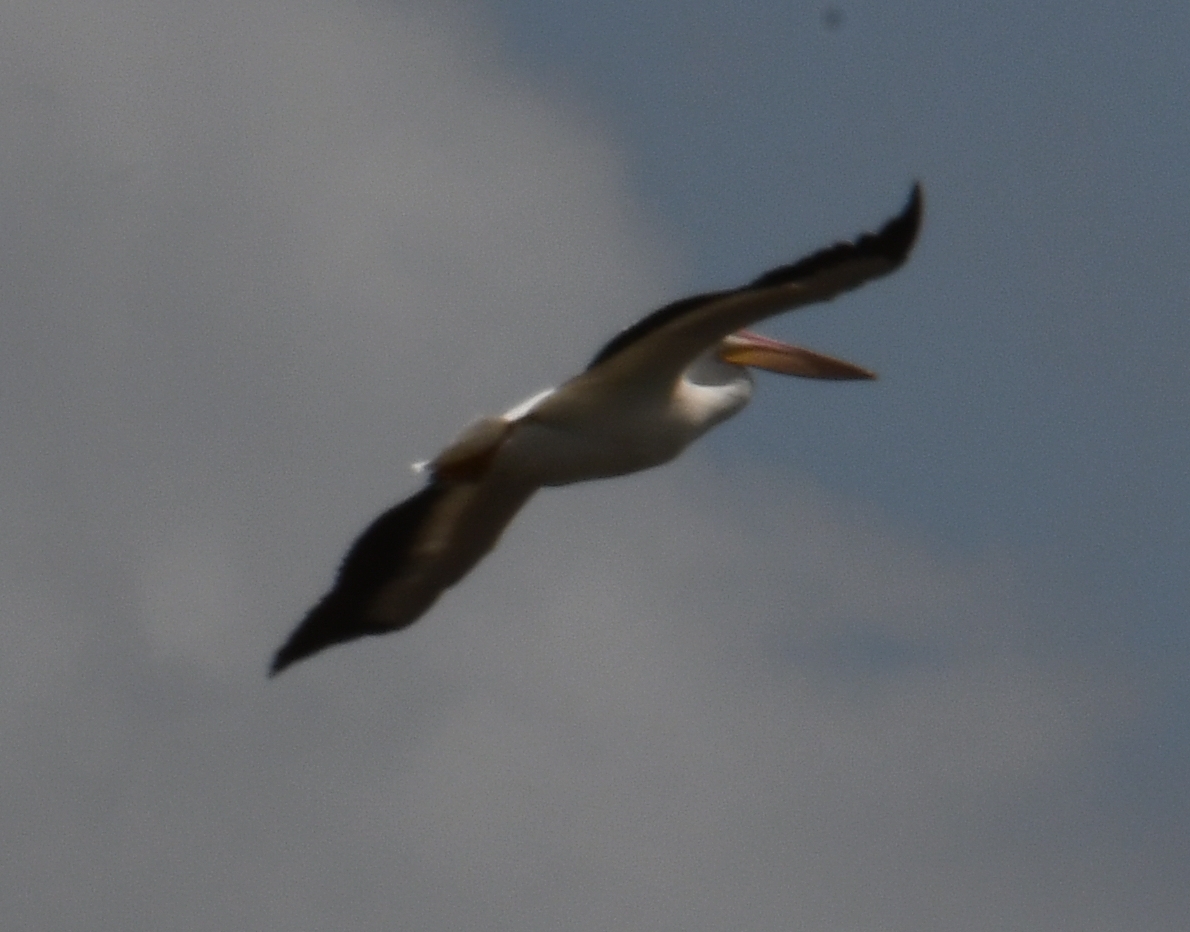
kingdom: Animalia
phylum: Chordata
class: Aves
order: Pelecaniformes
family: Pelecanidae
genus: Pelecanus
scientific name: Pelecanus erythrorhynchos
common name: American white pelican
